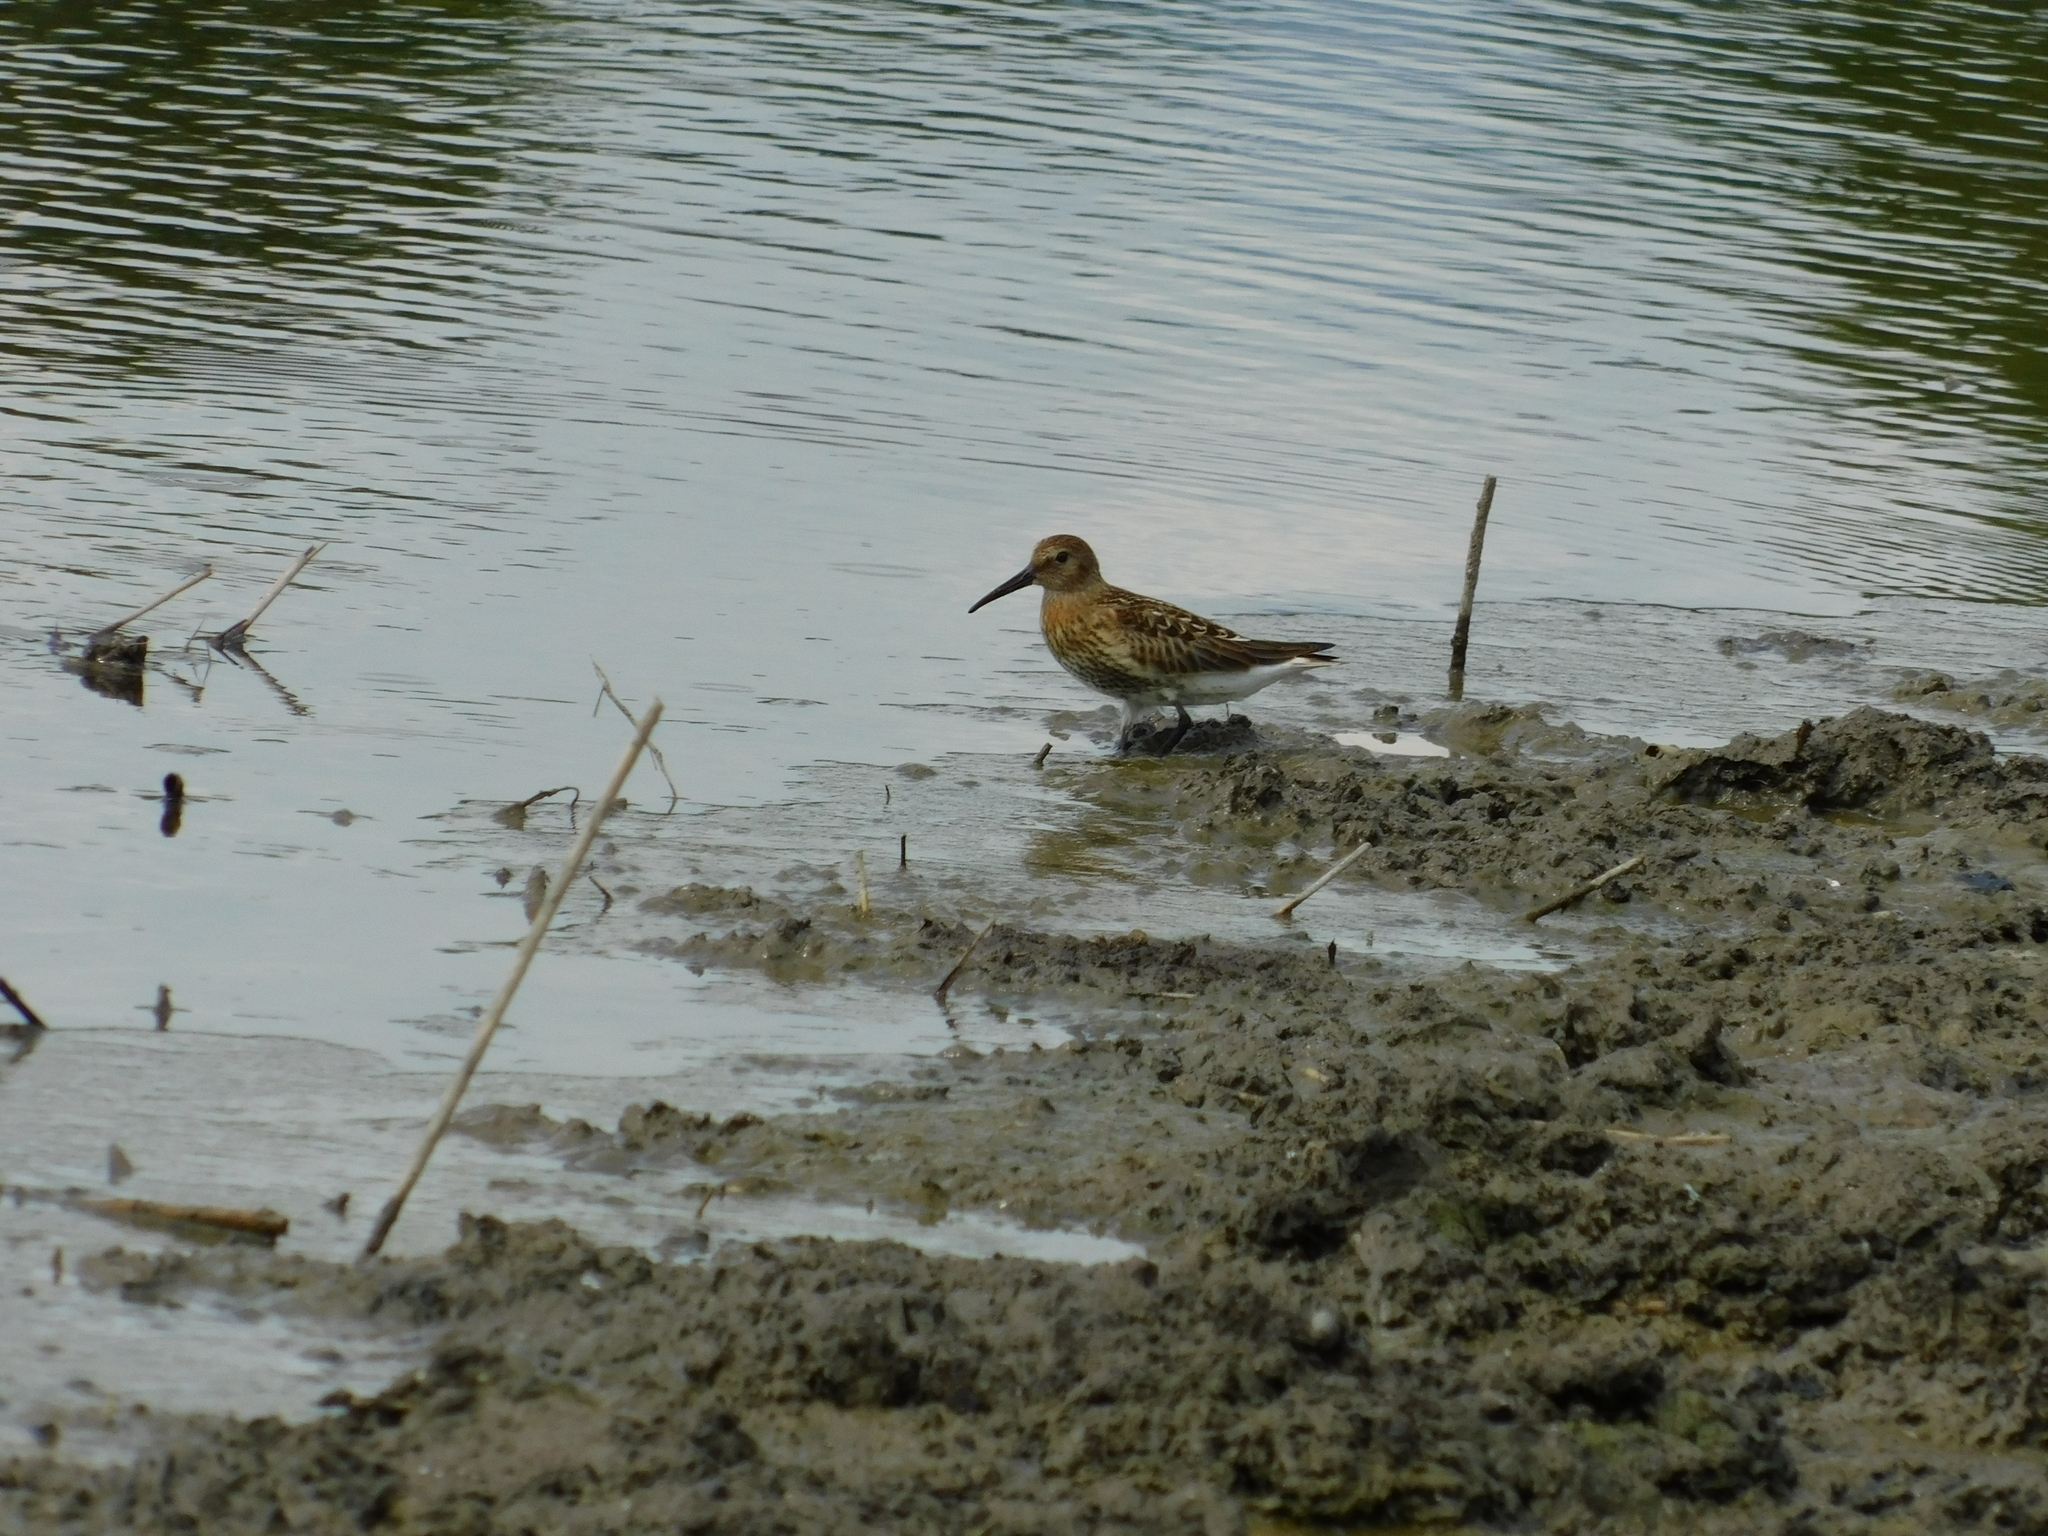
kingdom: Animalia
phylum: Chordata
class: Aves
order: Charadriiformes
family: Scolopacidae
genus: Calidris
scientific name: Calidris alpina
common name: Dunlin
